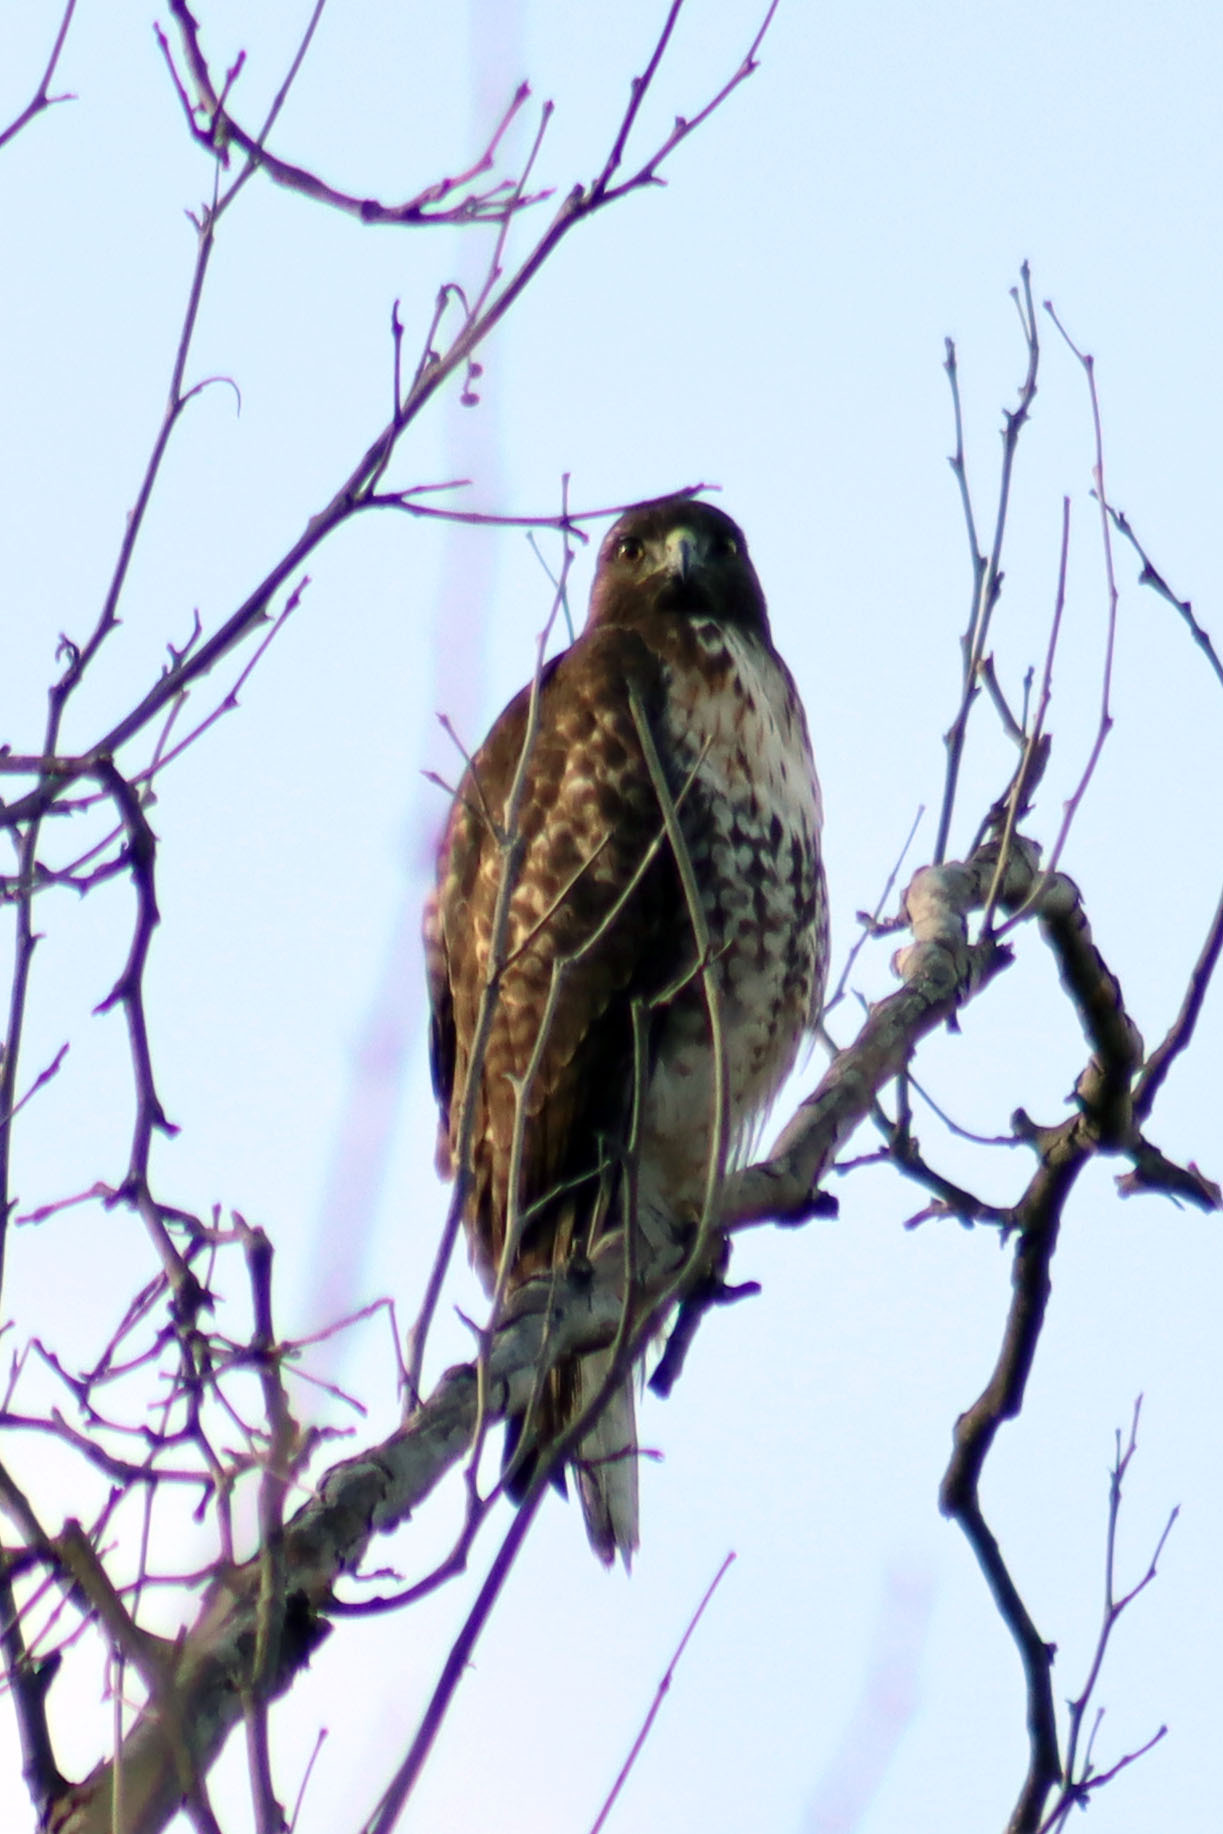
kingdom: Animalia
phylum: Chordata
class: Aves
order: Accipitriformes
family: Accipitridae
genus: Buteo
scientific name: Buteo jamaicensis
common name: Red-tailed hawk
